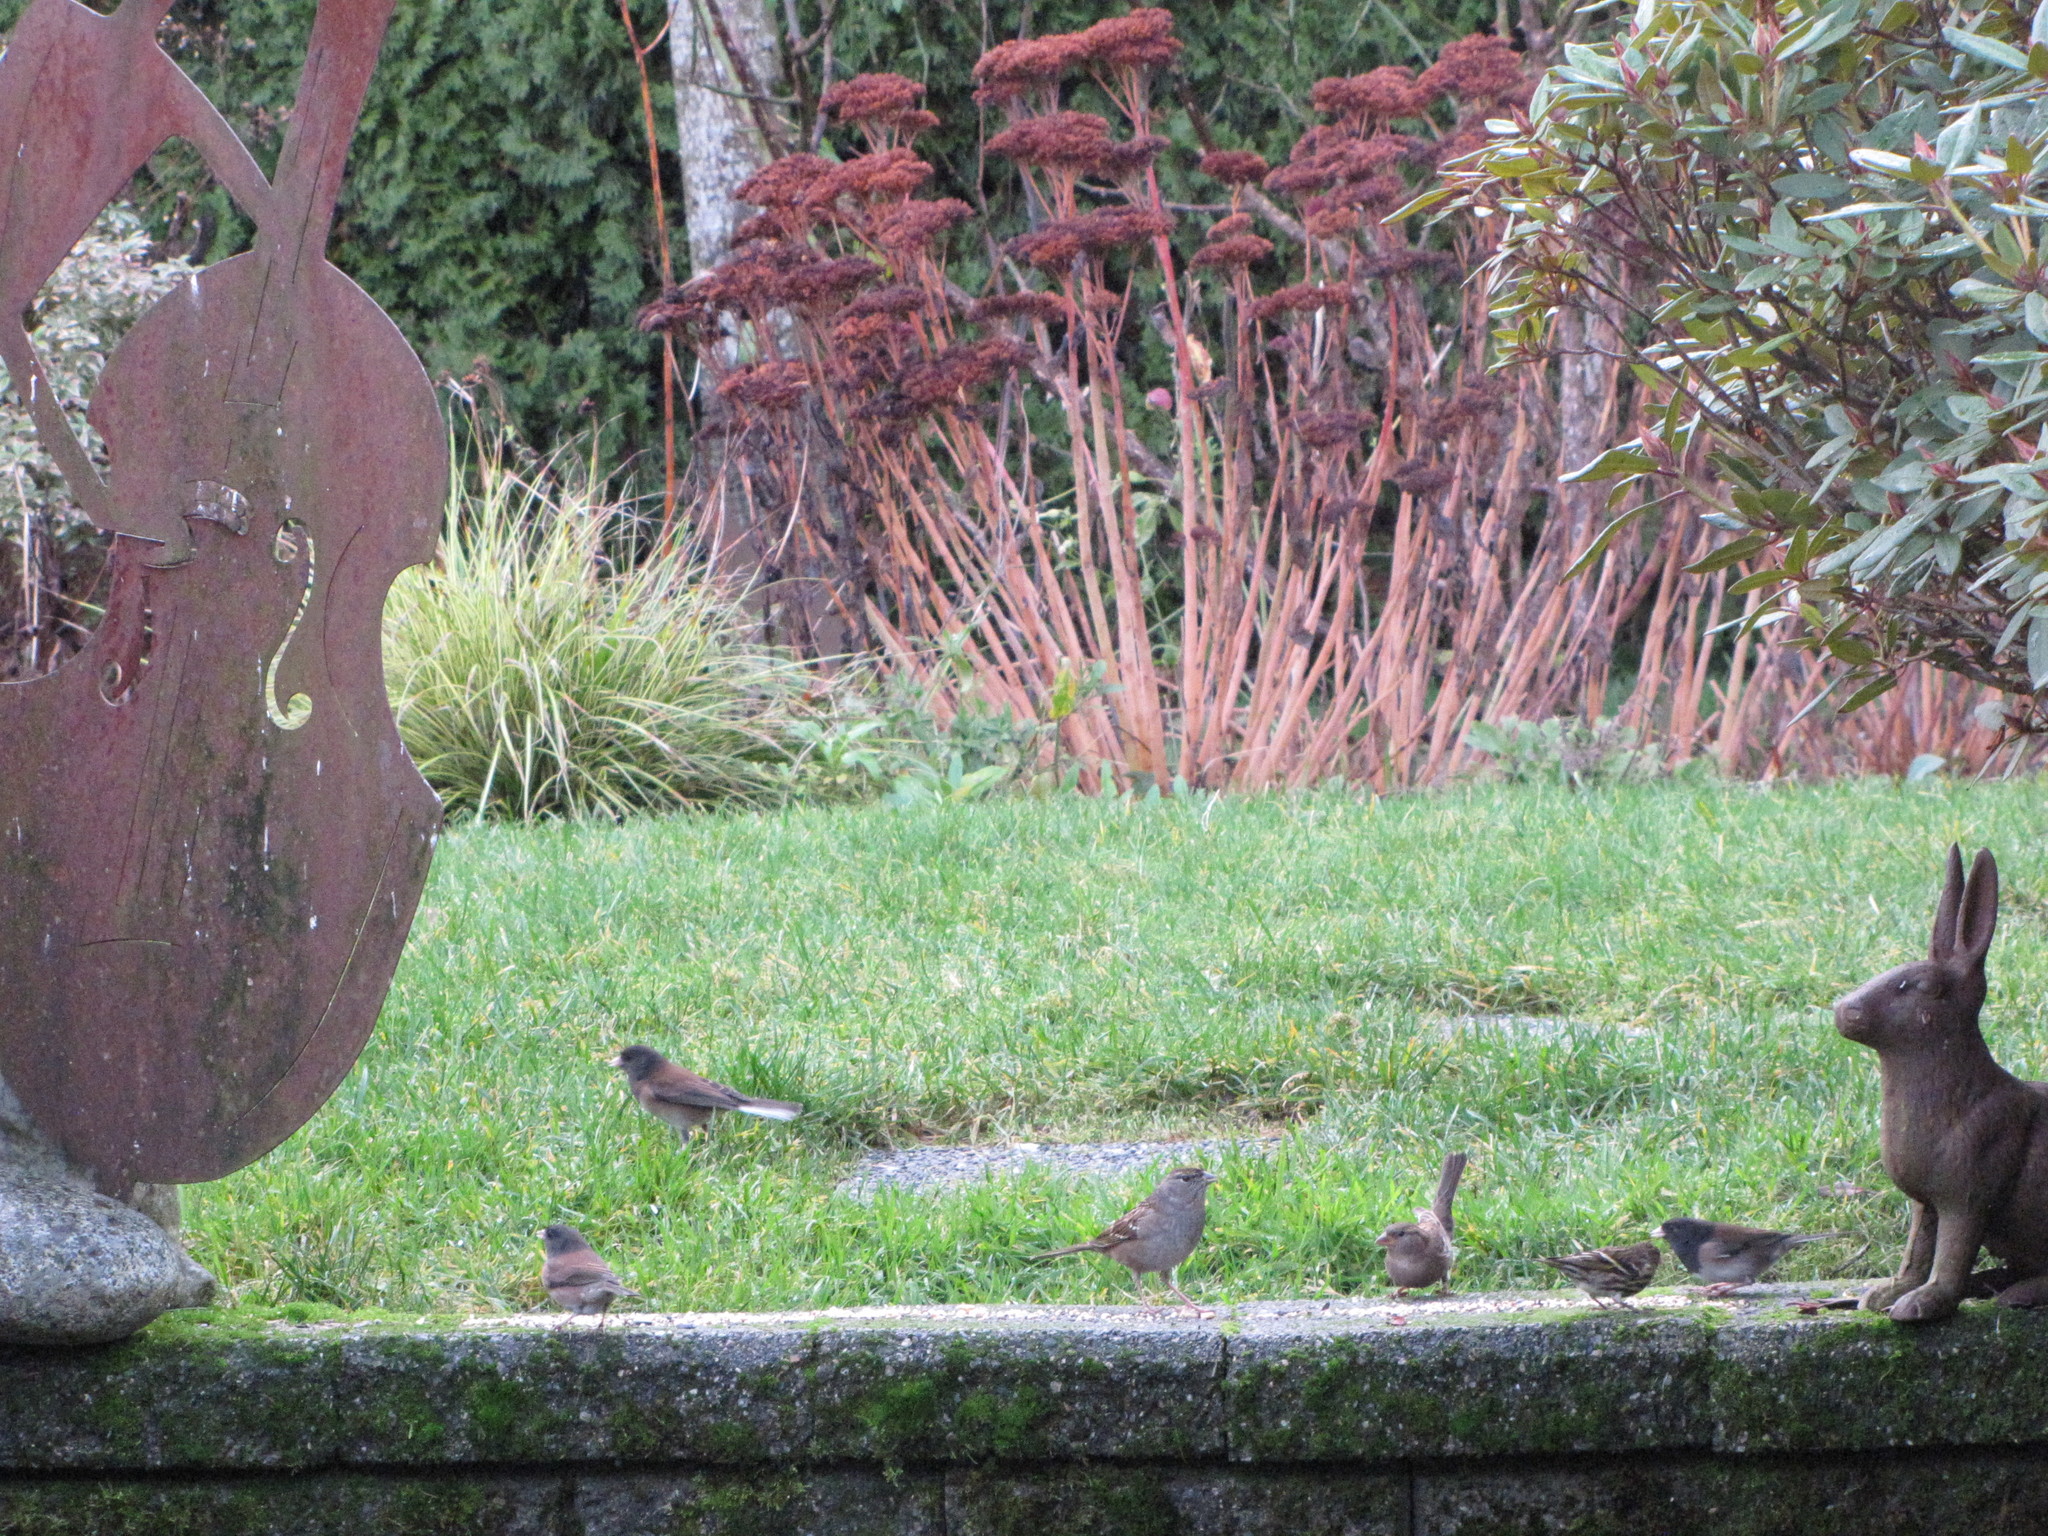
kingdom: Animalia
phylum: Chordata
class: Aves
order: Passeriformes
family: Passerellidae
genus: Zonotrichia
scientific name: Zonotrichia atricapilla
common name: Golden-crowned sparrow
